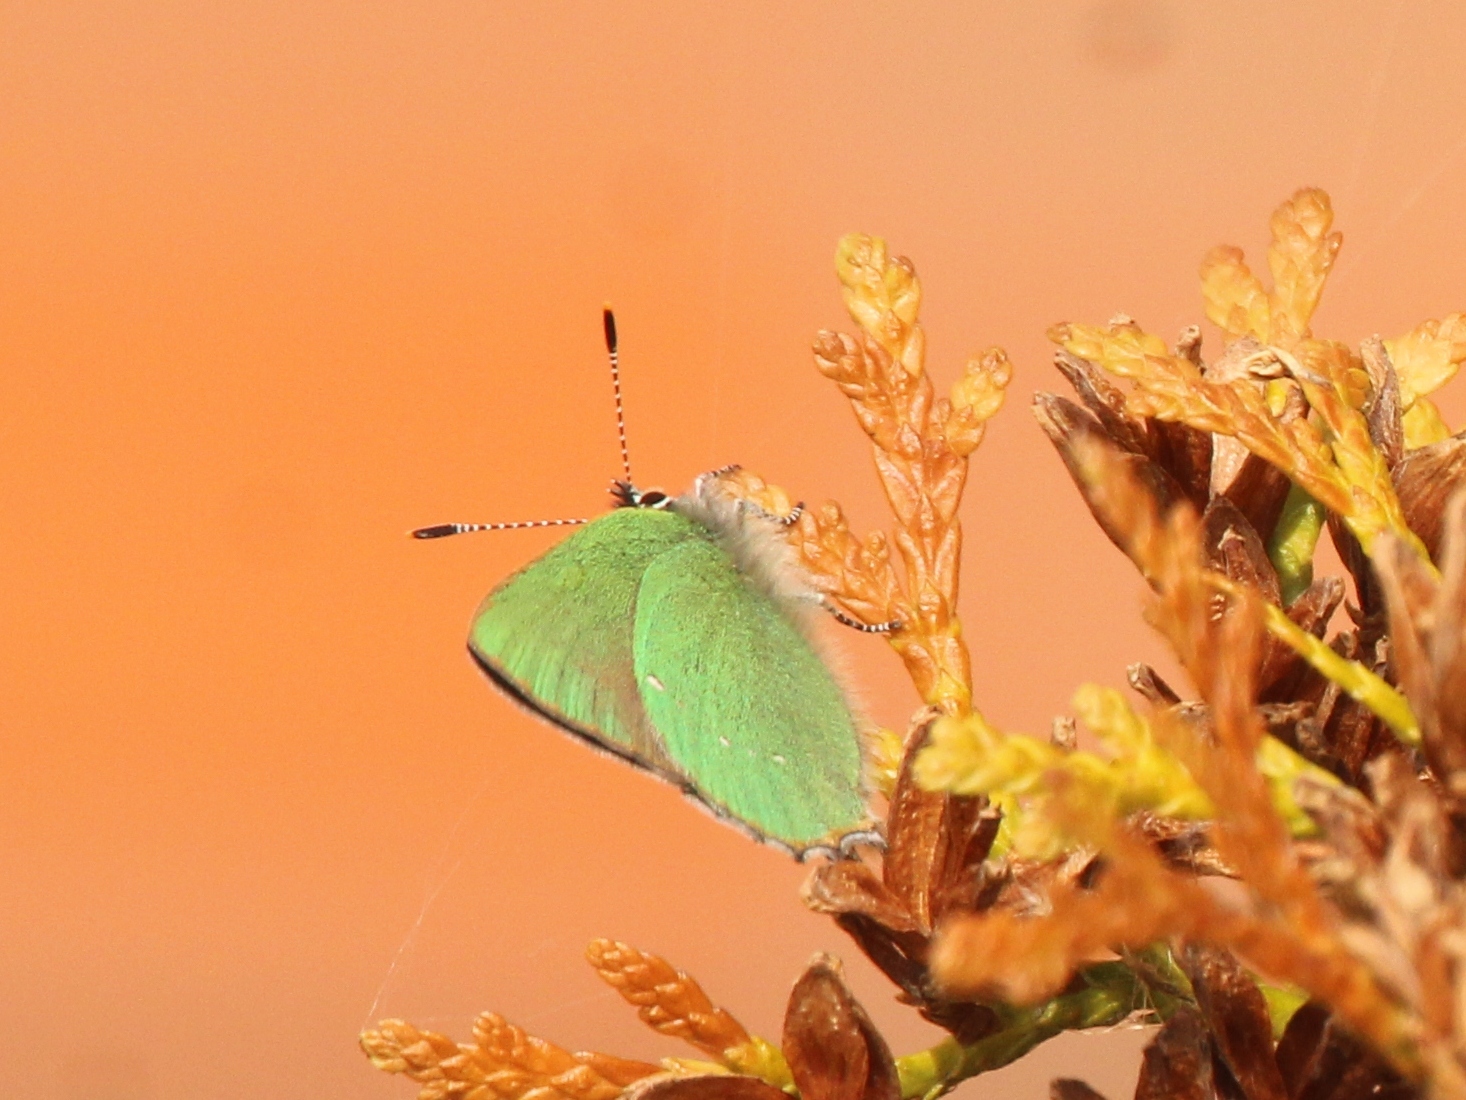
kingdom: Animalia
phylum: Arthropoda
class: Insecta
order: Lepidoptera
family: Lycaenidae
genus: Callophrys
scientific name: Callophrys rubi
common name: Green hairstreak
